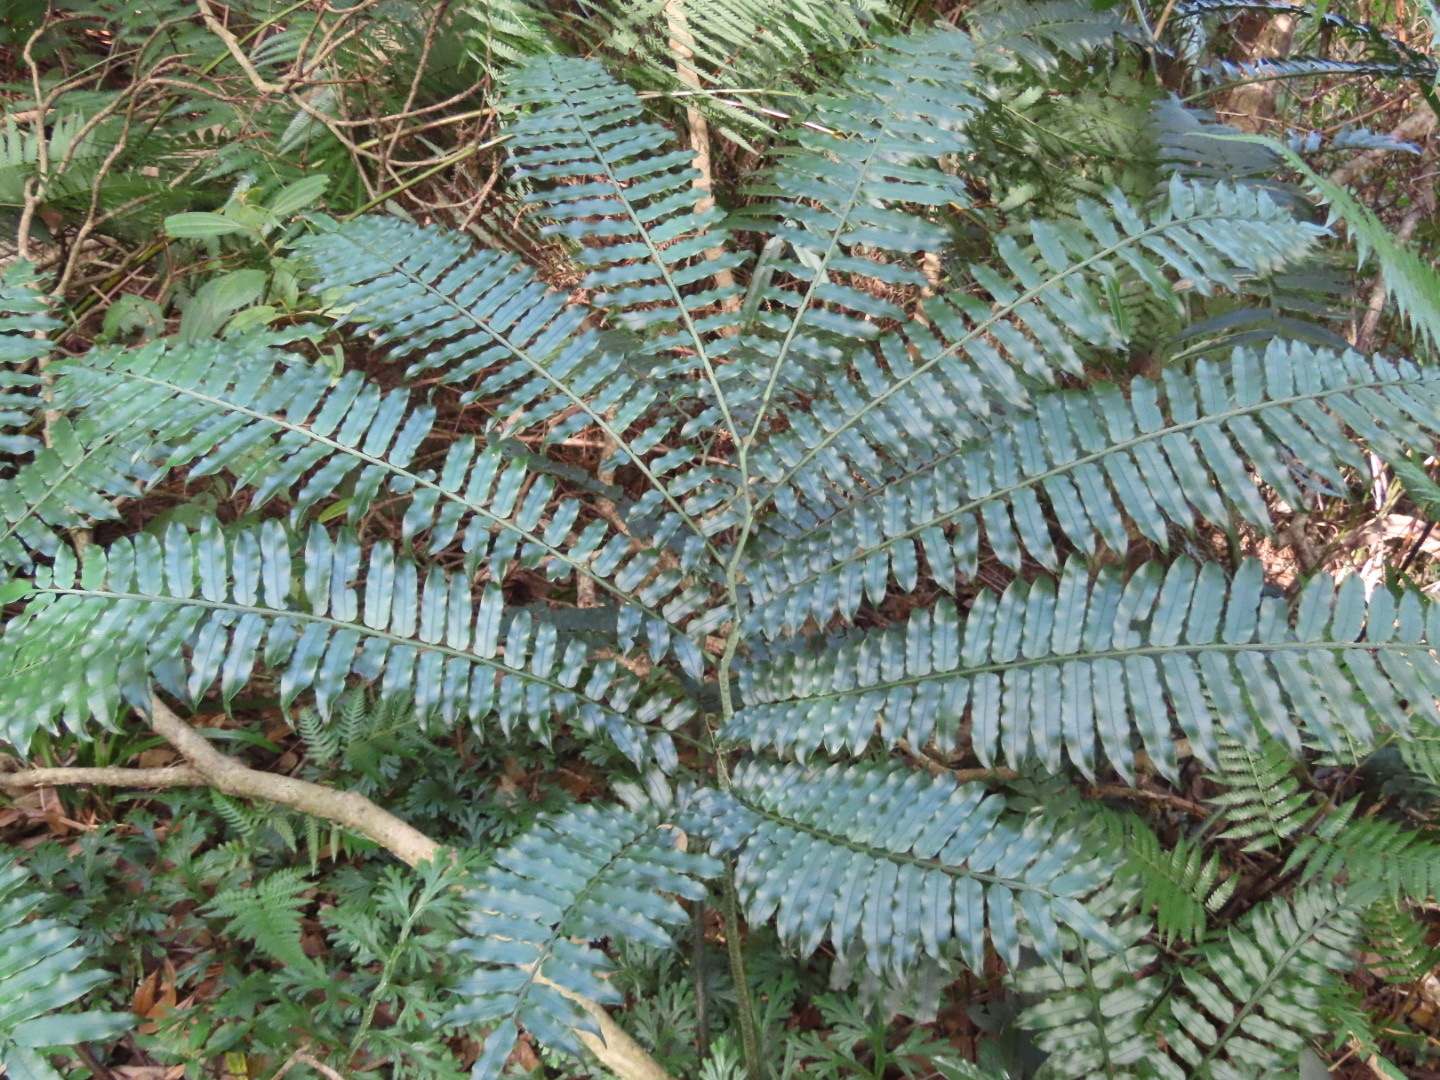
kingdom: Plantae
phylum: Tracheophyta
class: Polypodiopsida
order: Marattiales
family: Marattiaceae
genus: Angiopteris
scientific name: Angiopteris fokiensis
